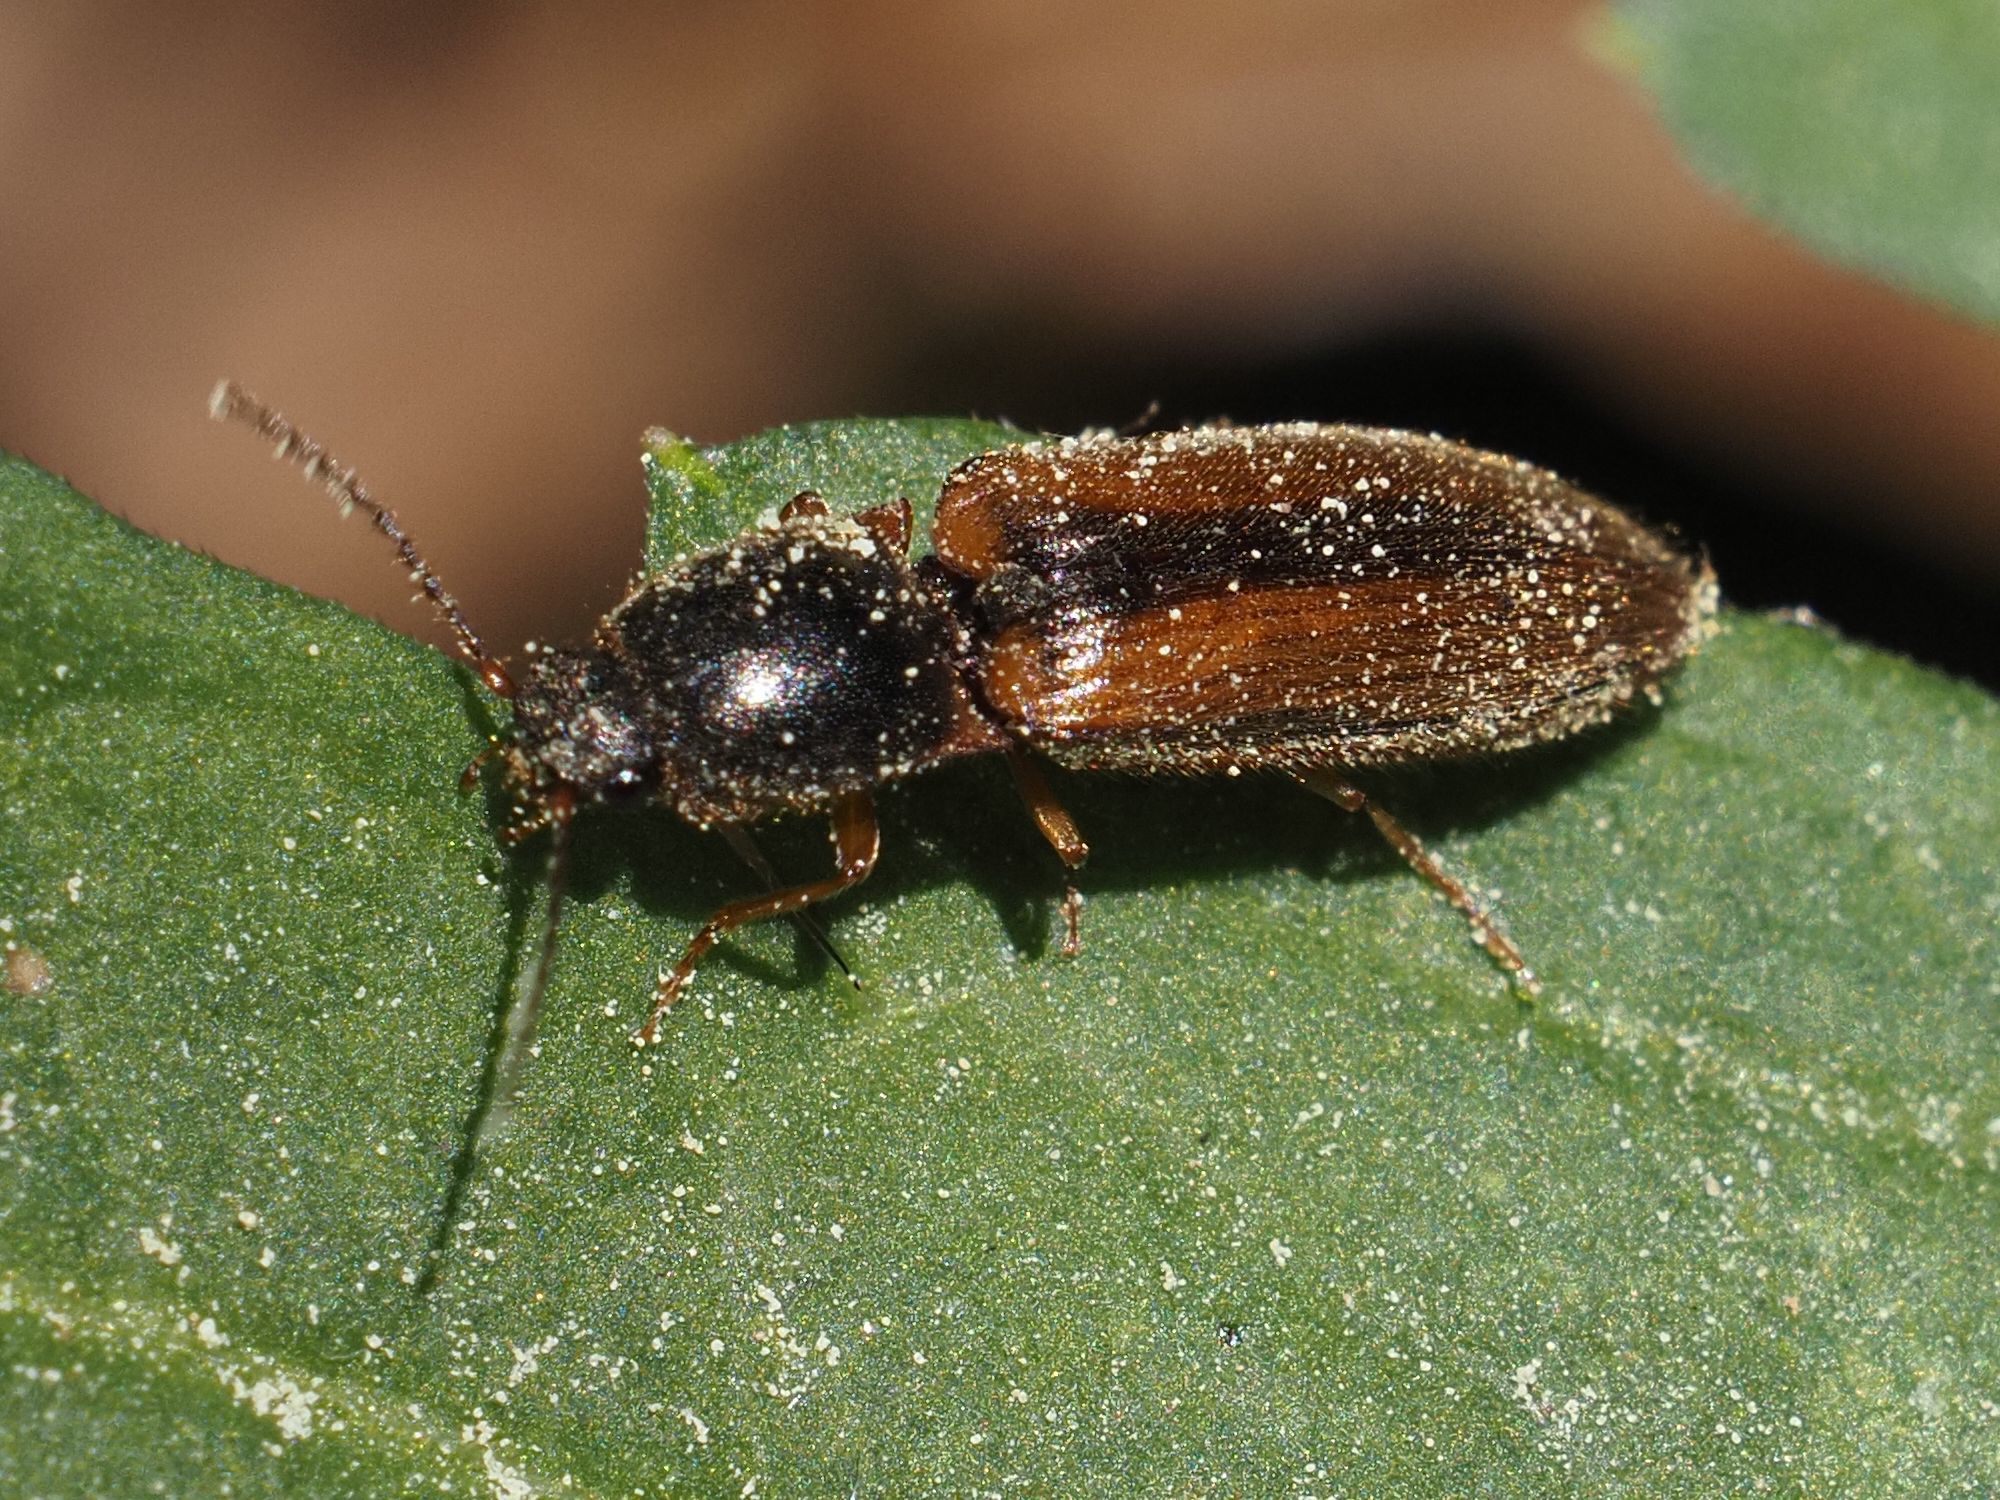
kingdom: Animalia
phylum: Arthropoda
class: Insecta
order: Coleoptera
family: Elateridae
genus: Athous
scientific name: Athous vittatus
